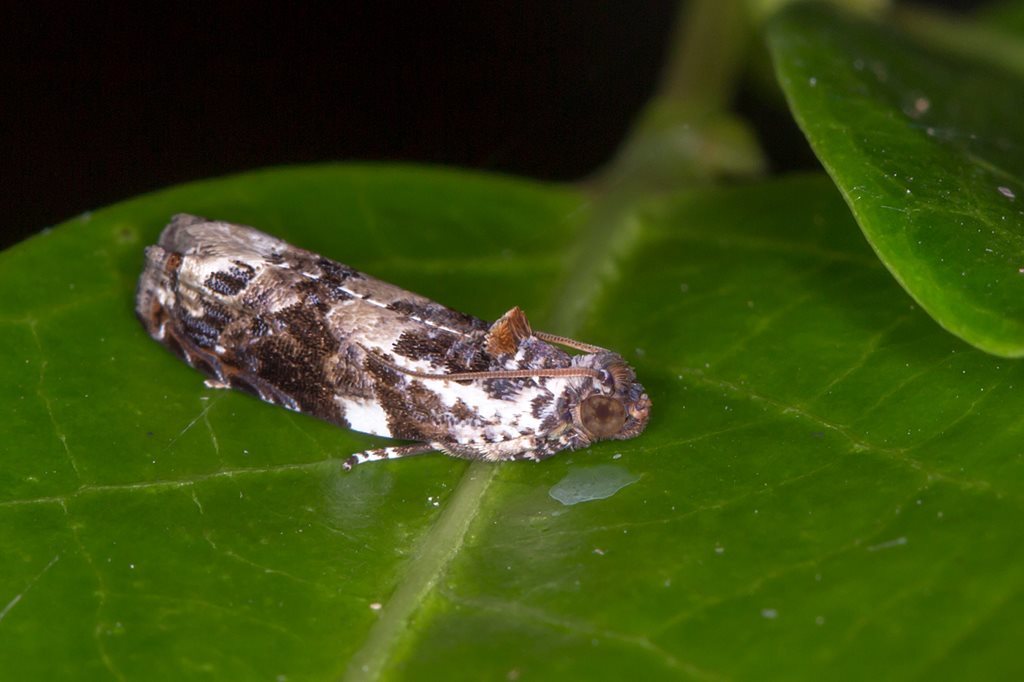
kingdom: Animalia
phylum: Arthropoda
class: Insecta
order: Lepidoptera
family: Tortricidae
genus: Dudua
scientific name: Dudua aprobola
